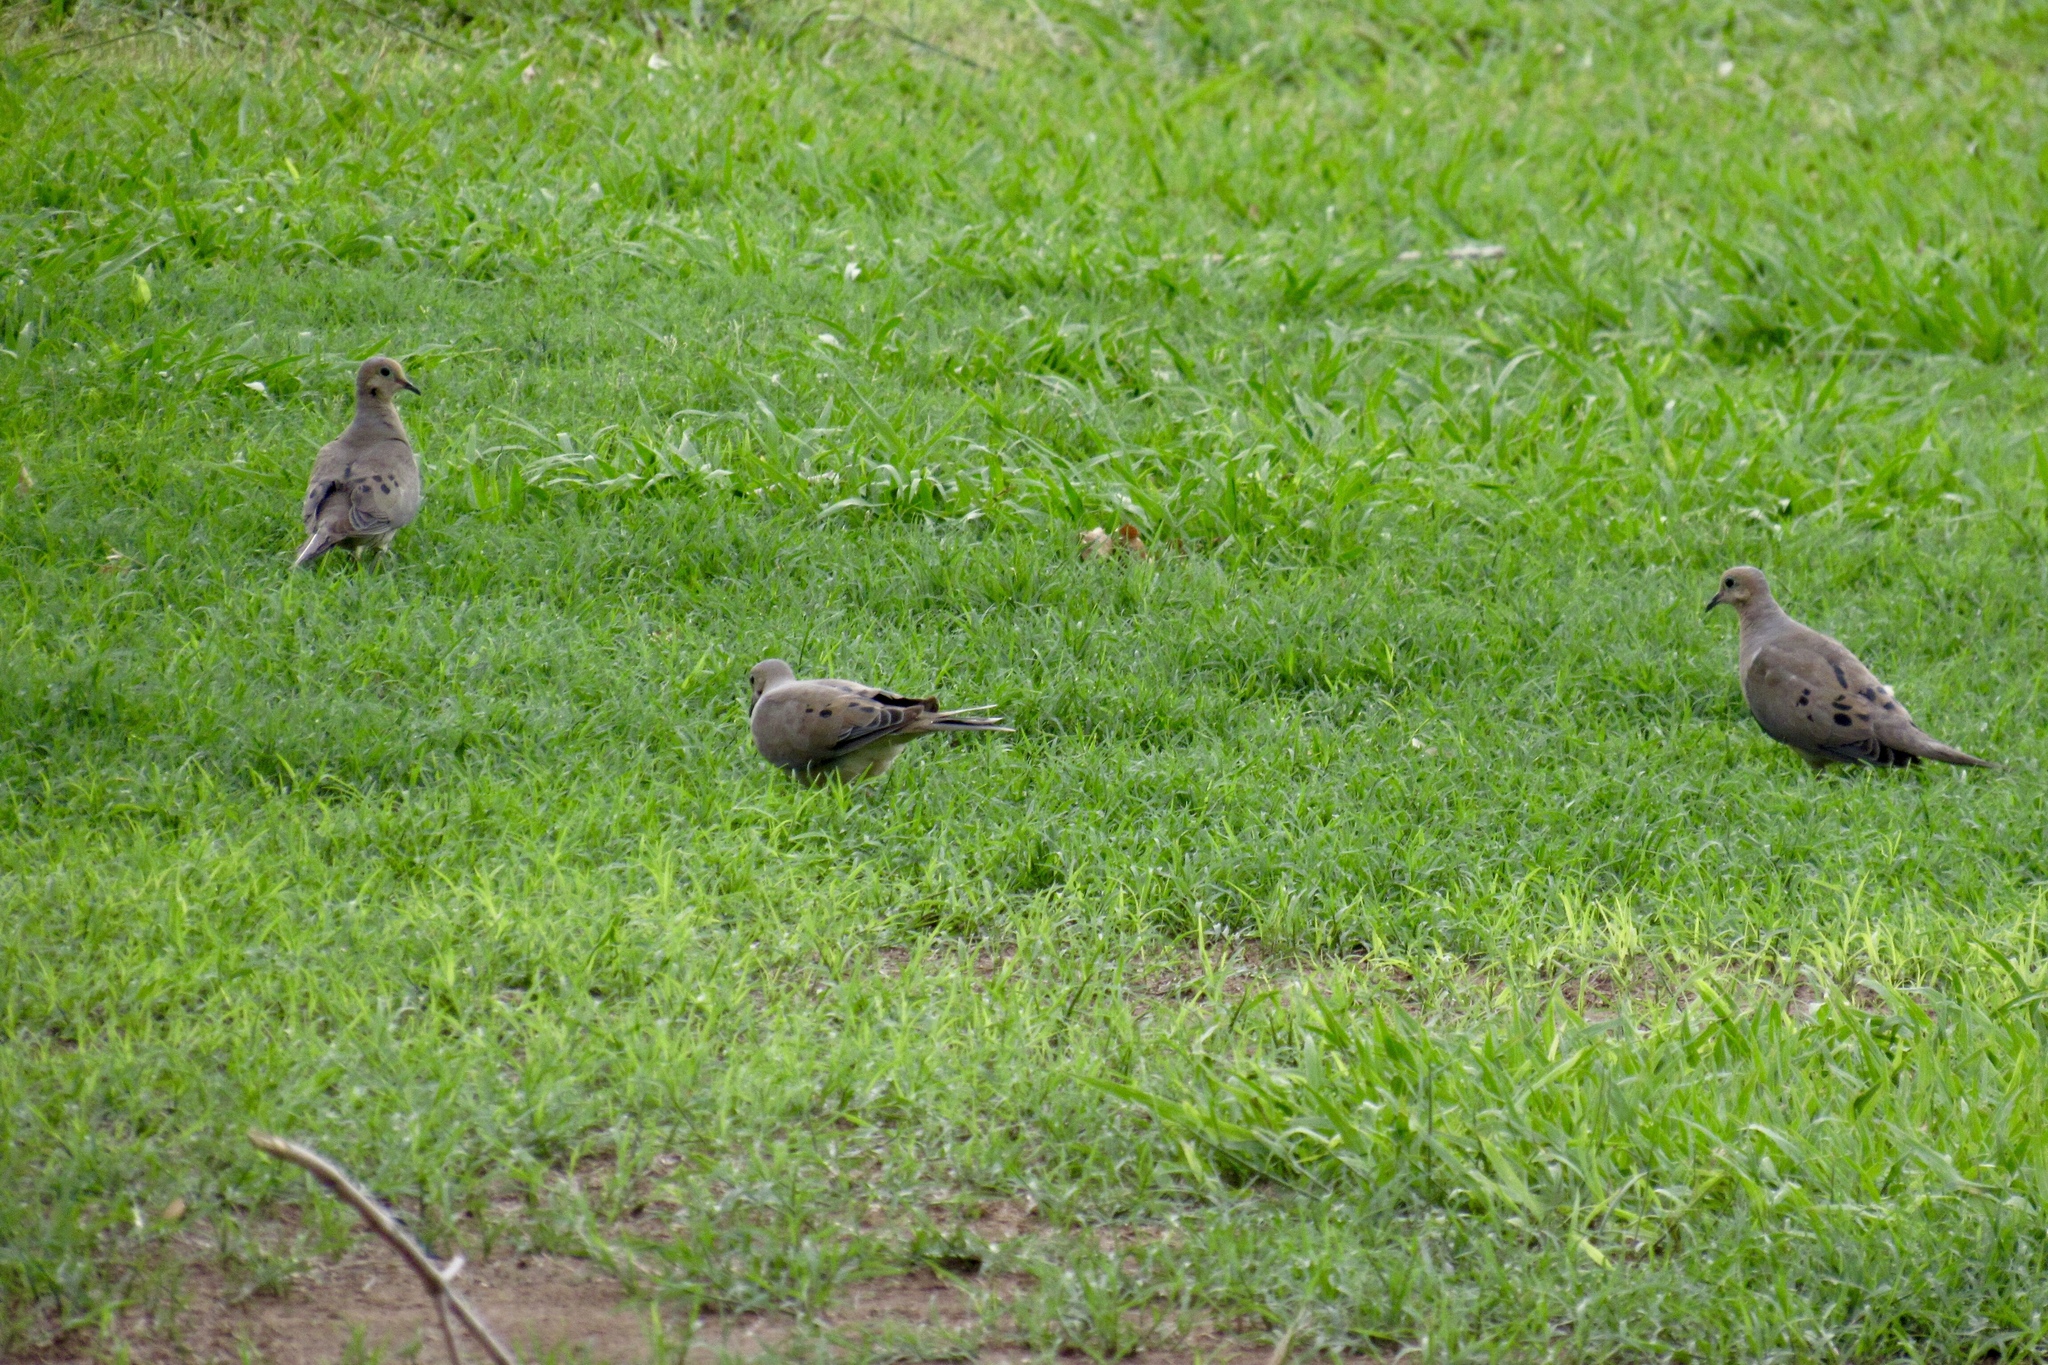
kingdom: Animalia
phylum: Chordata
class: Aves
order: Columbiformes
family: Columbidae
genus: Zenaida
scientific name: Zenaida macroura
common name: Mourning dove
